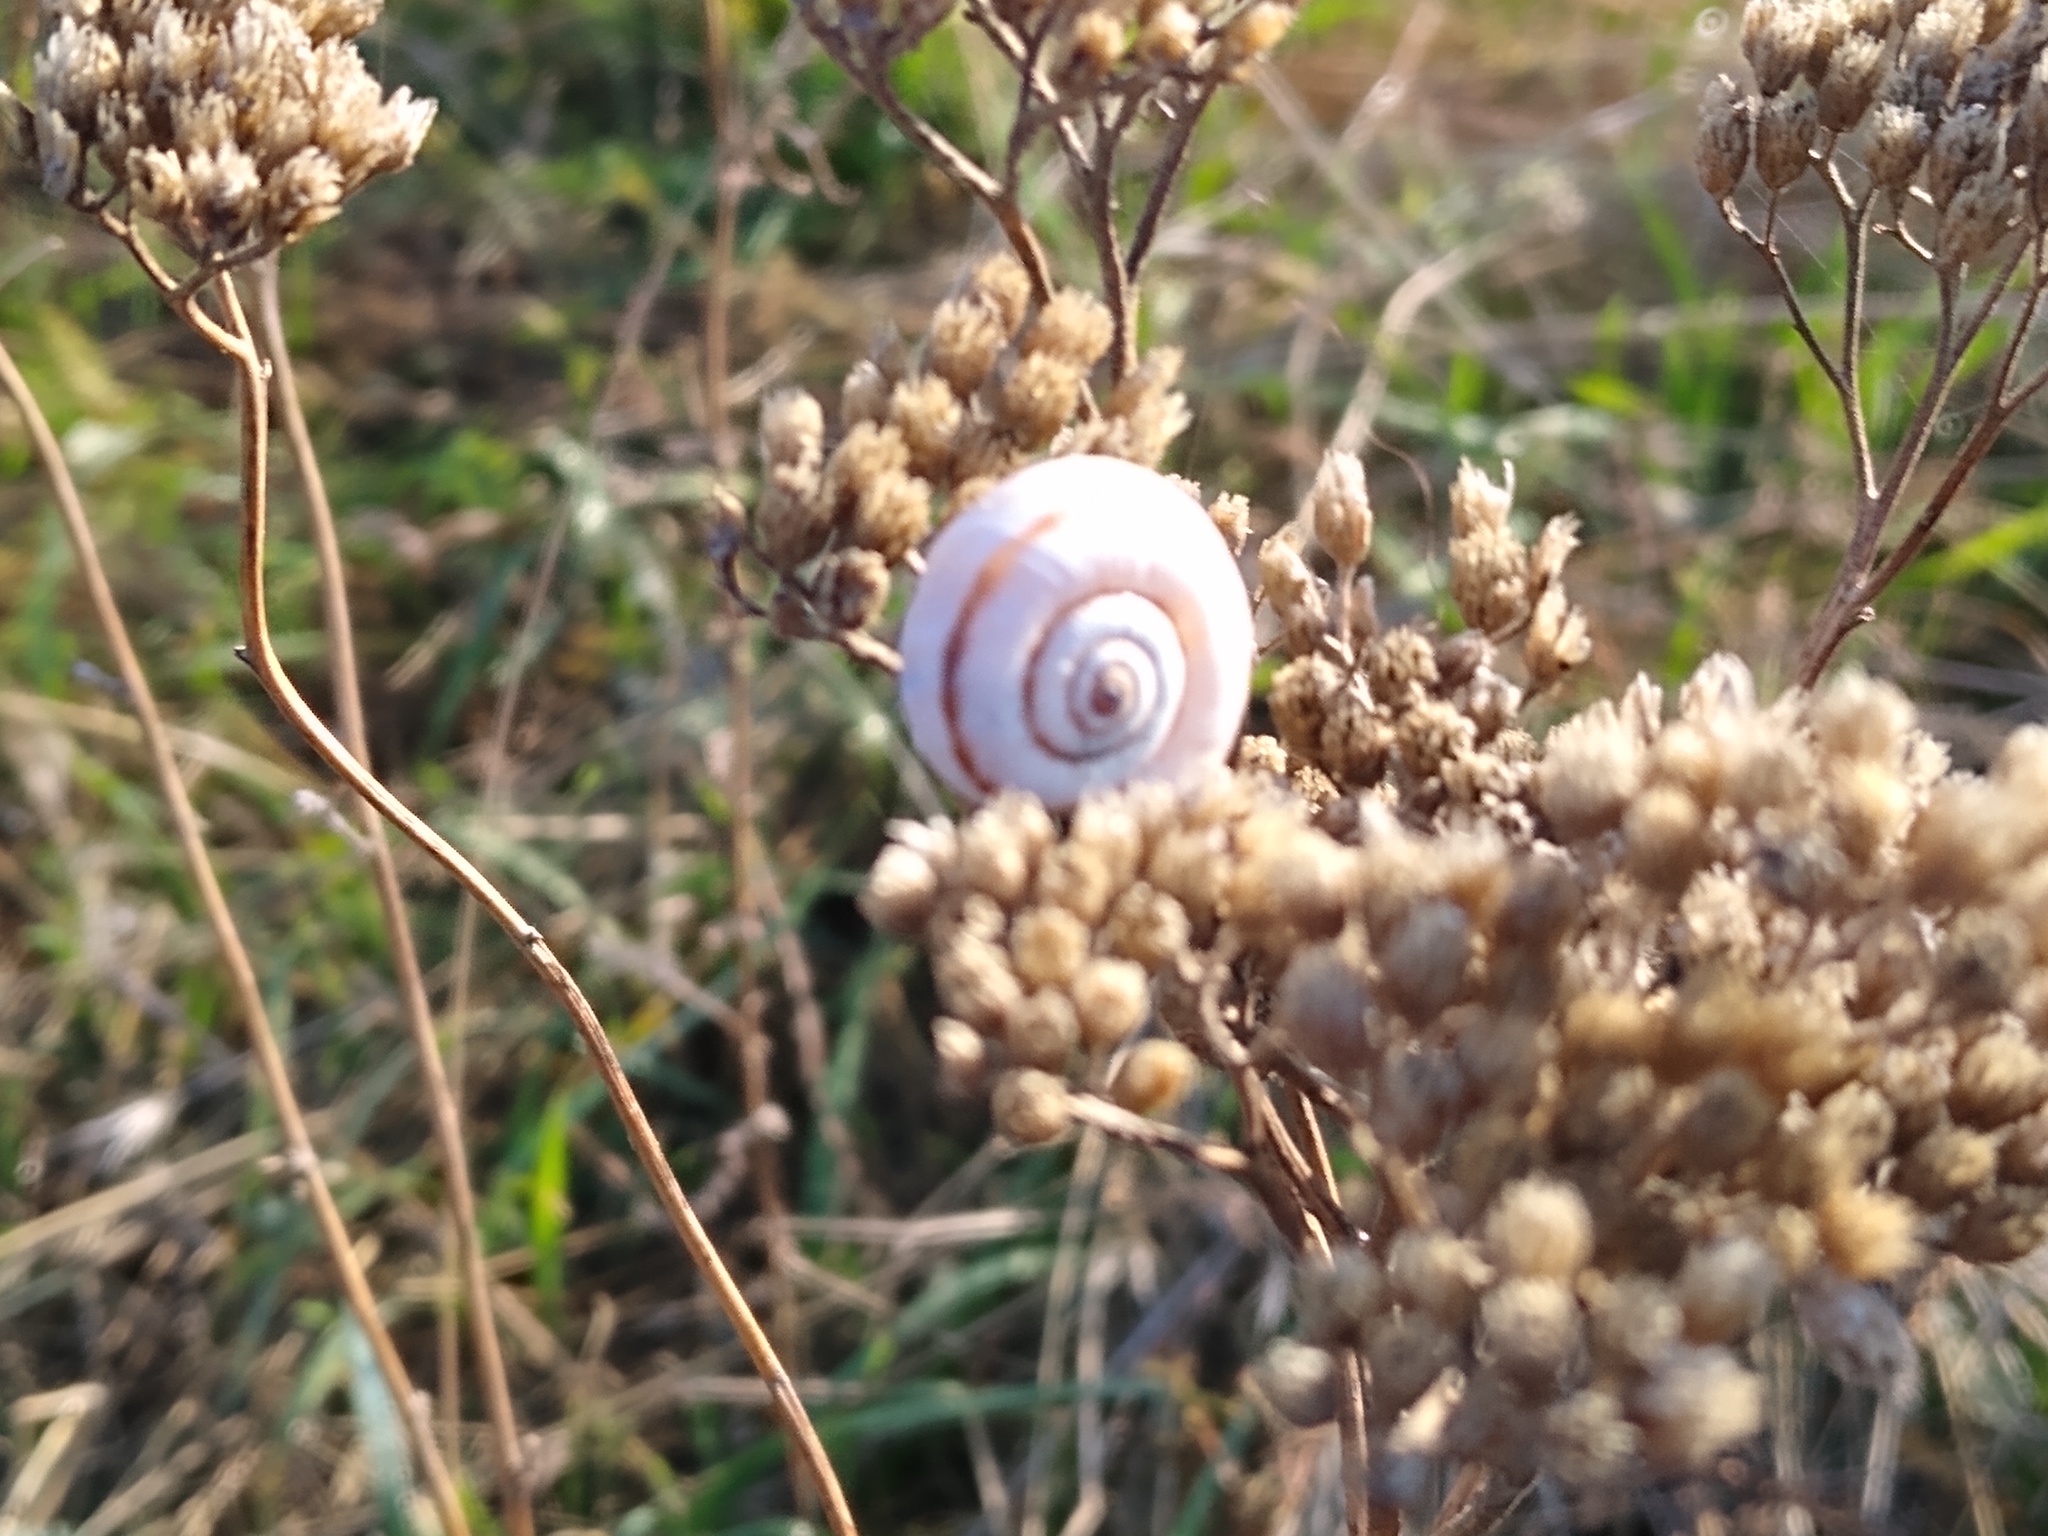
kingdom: Animalia
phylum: Mollusca
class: Gastropoda
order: Stylommatophora
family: Geomitridae
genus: Xeropicta
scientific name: Xeropicta derbentina
